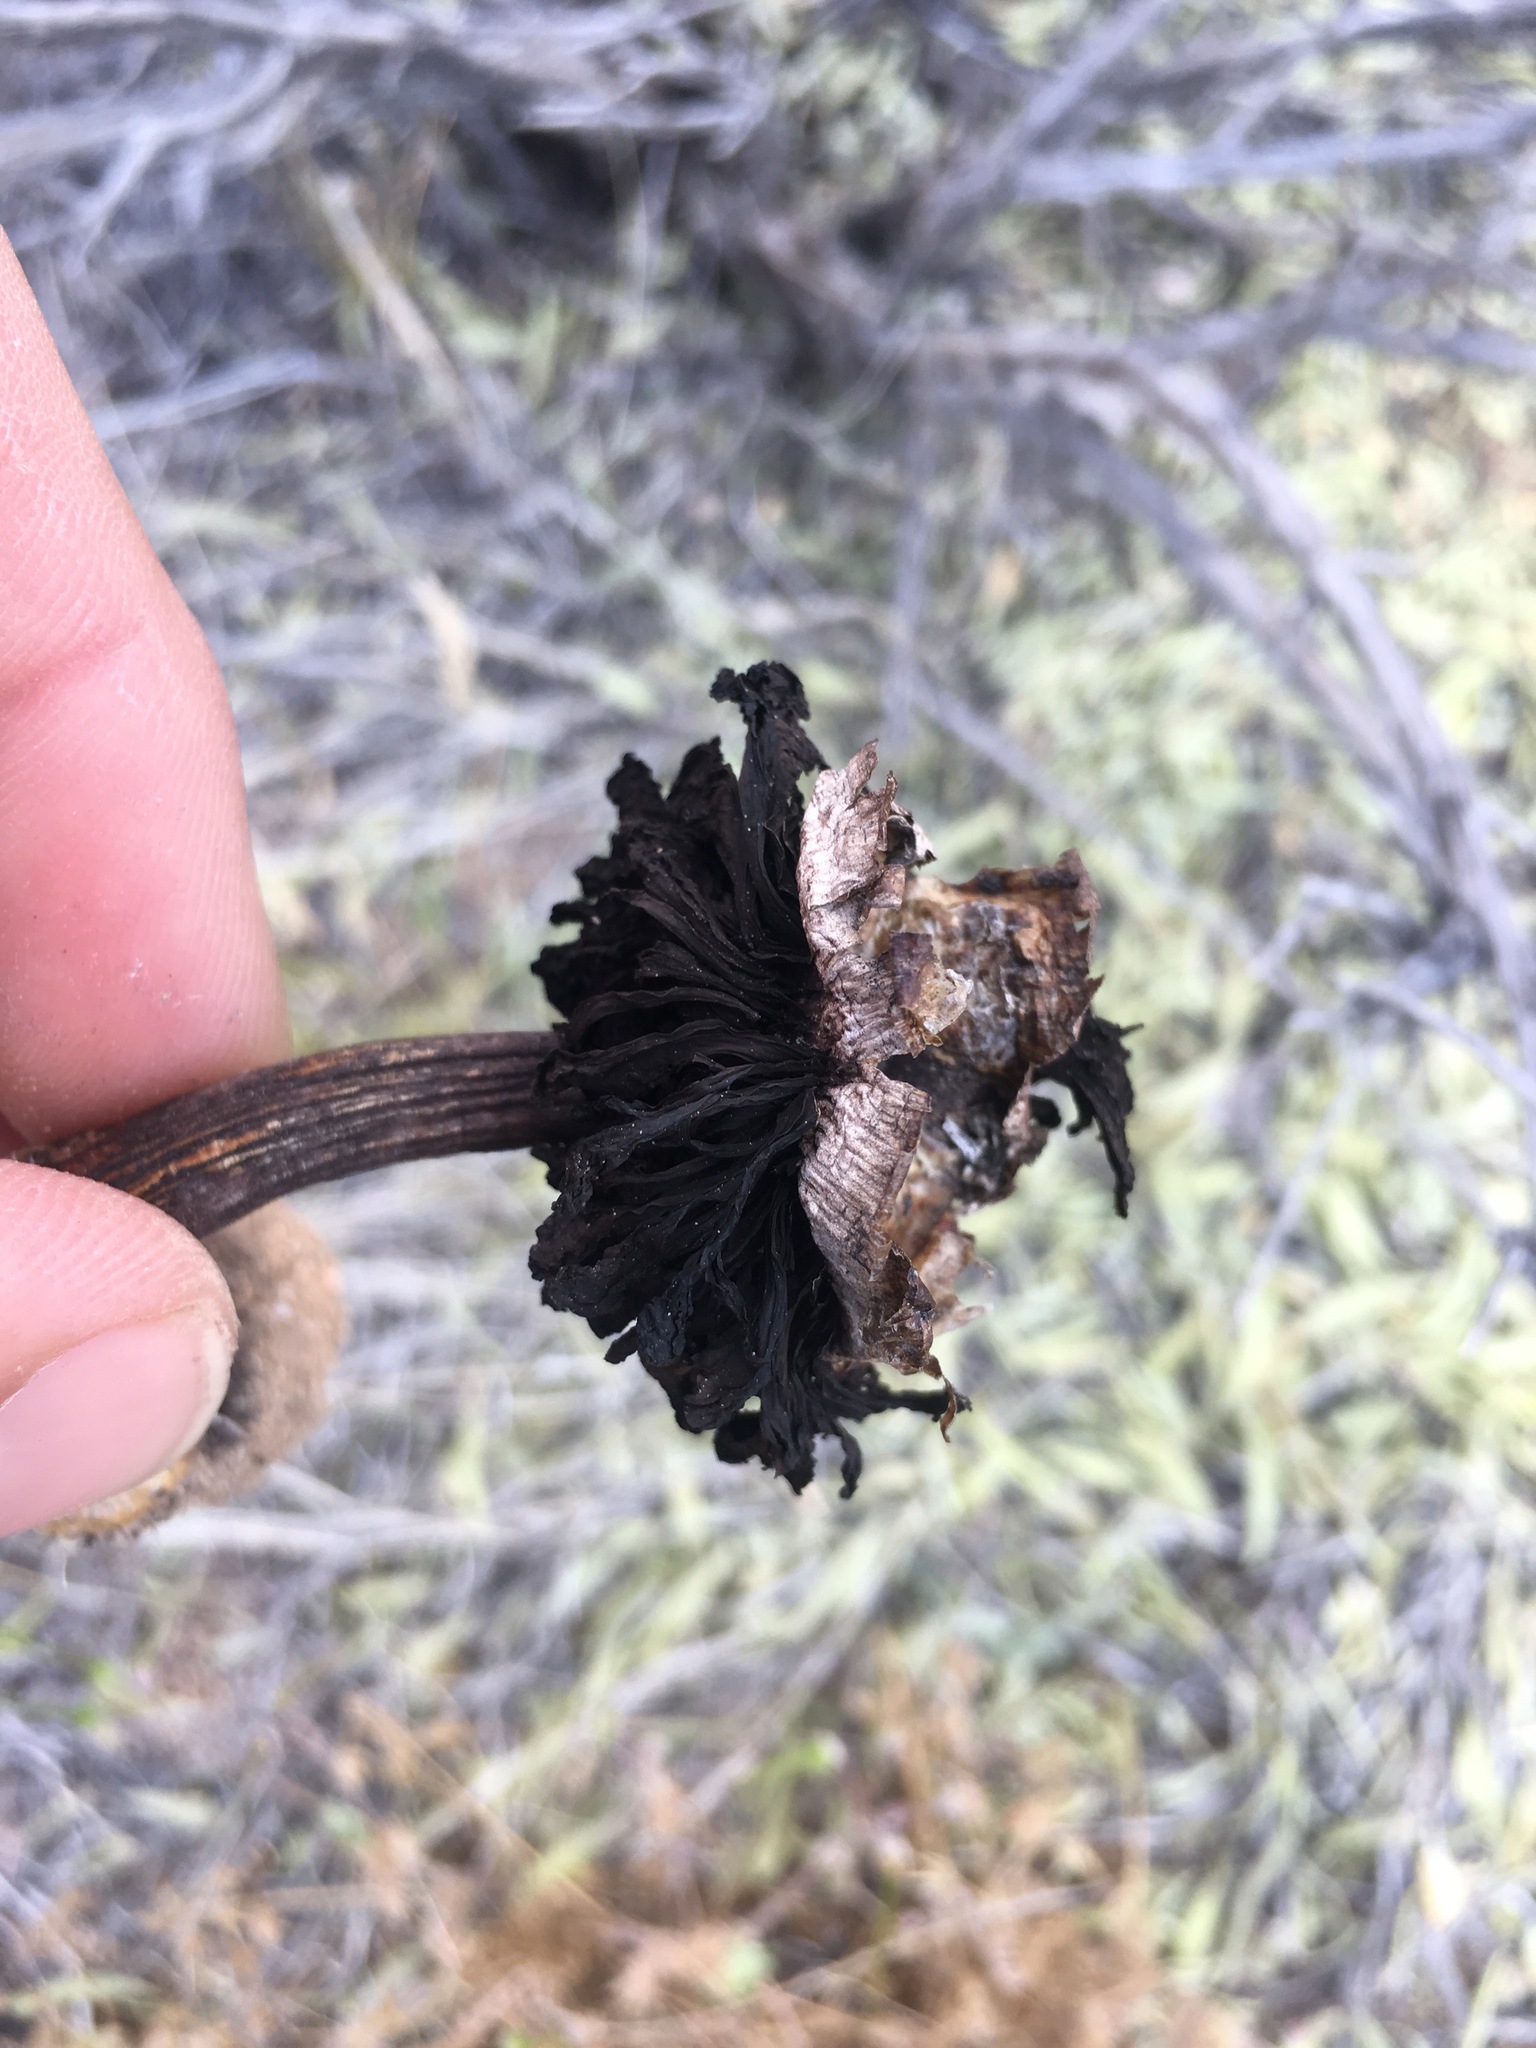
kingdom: Fungi
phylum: Basidiomycota
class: Agaricomycetes
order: Agaricales
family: Agaricaceae
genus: Agaricus
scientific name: Agaricus zelleri
